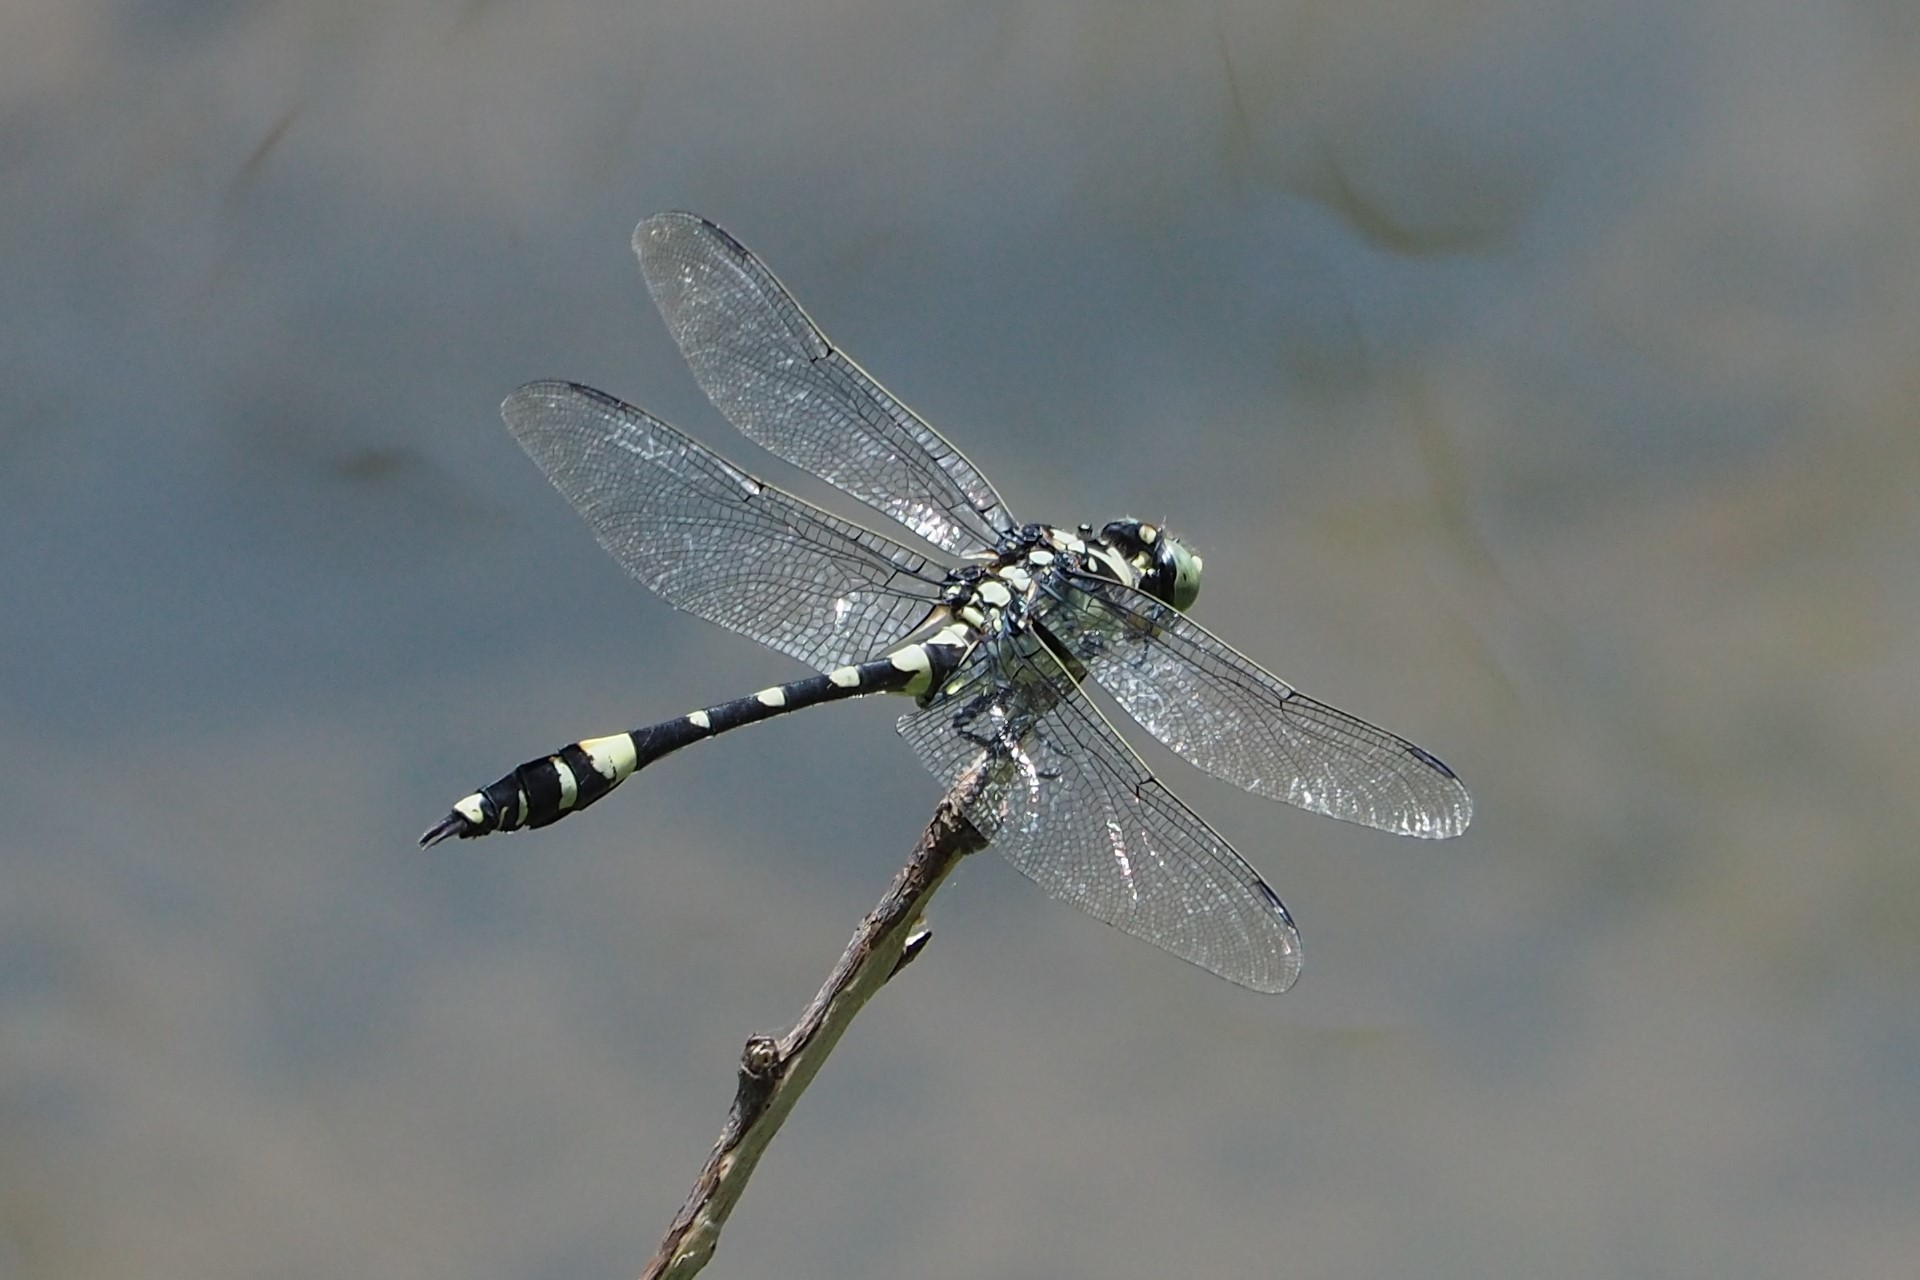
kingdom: Animalia
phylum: Arthropoda
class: Insecta
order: Odonata
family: Gomphidae
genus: Gomphidia
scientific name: Gomphidia confluens
